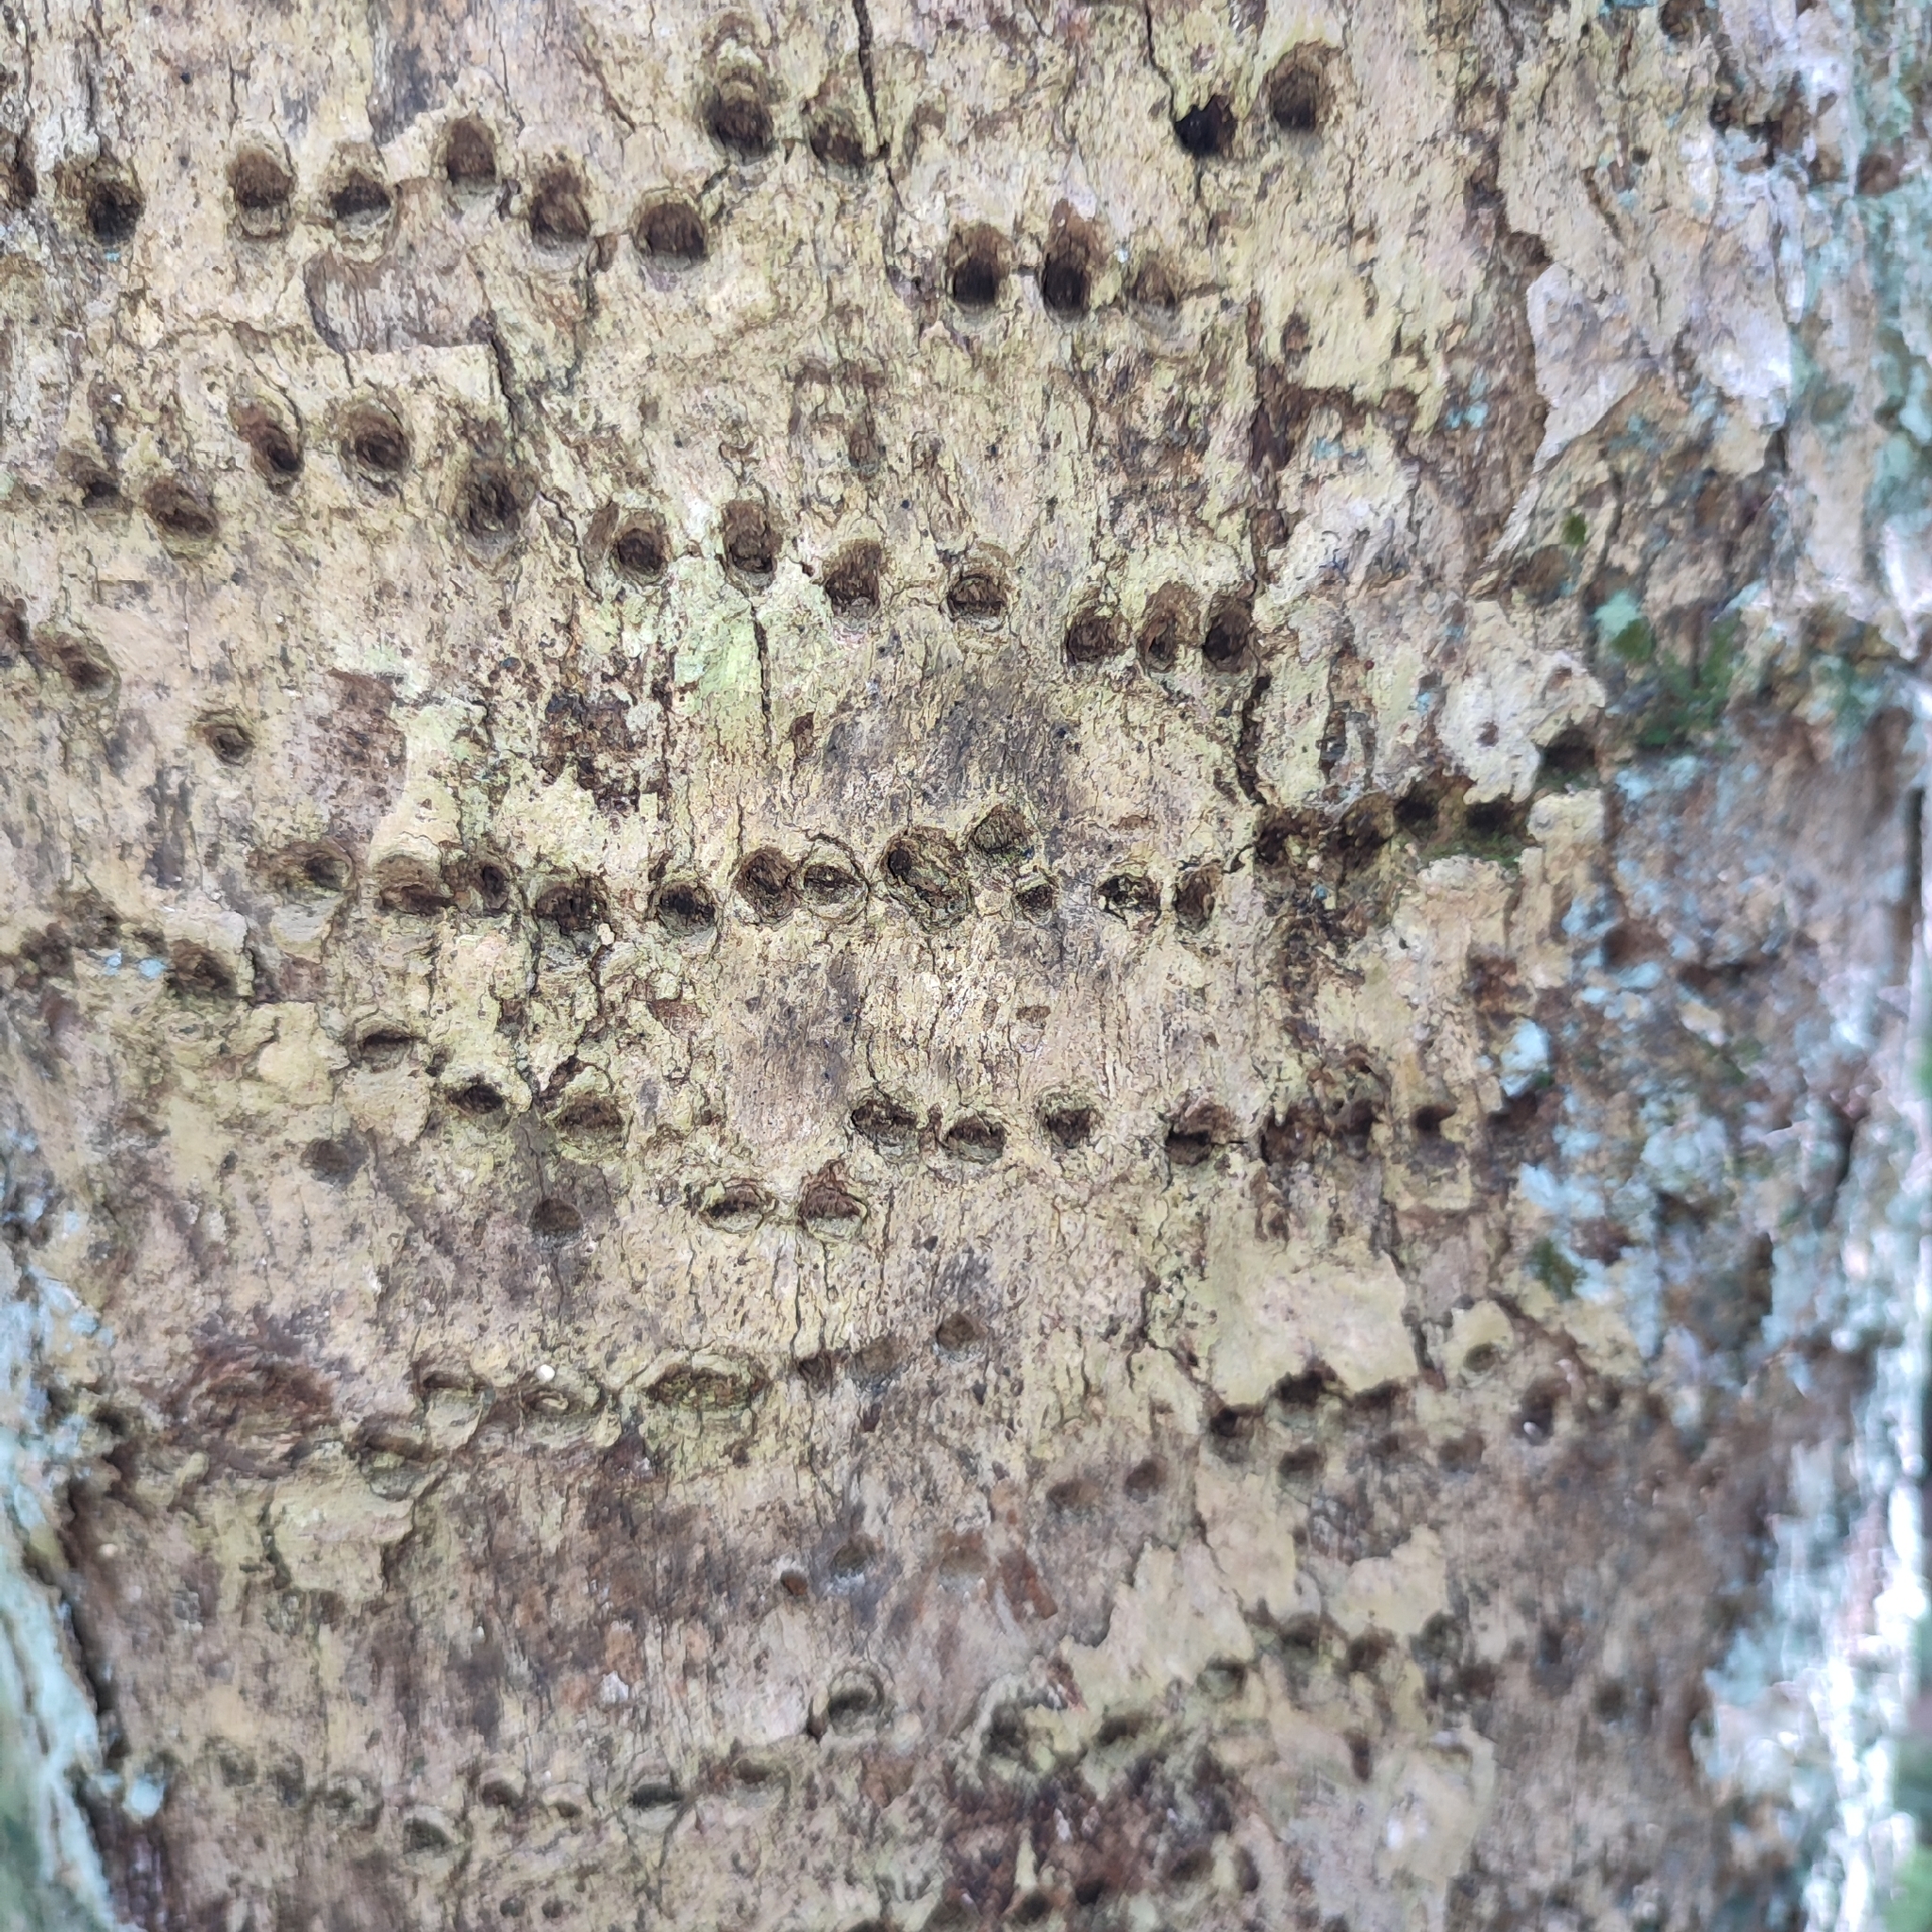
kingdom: Animalia
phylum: Chordata
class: Aves
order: Piciformes
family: Picidae
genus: Sphyrapicus
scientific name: Sphyrapicus varius
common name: Yellow-bellied sapsucker
